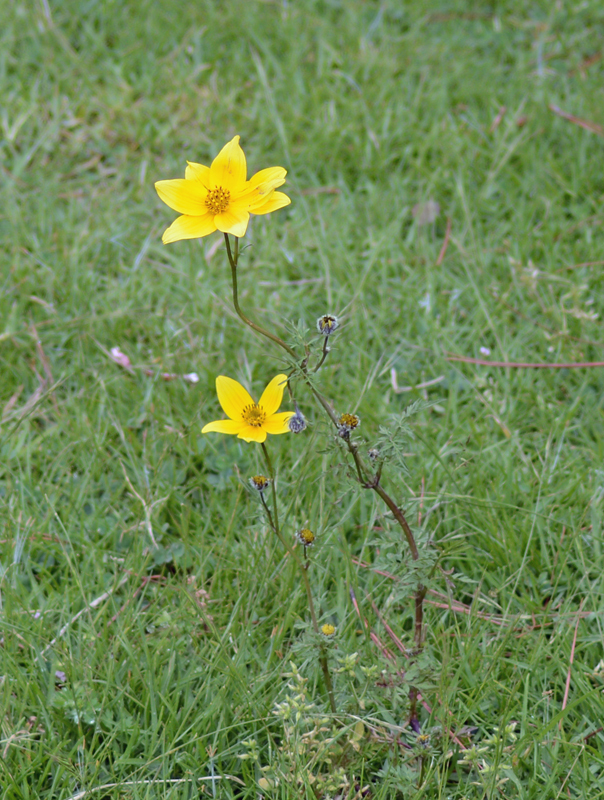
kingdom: Plantae
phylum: Tracheophyta
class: Magnoliopsida
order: Asterales
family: Asteraceae
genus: Bidens
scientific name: Bidens serrulata
